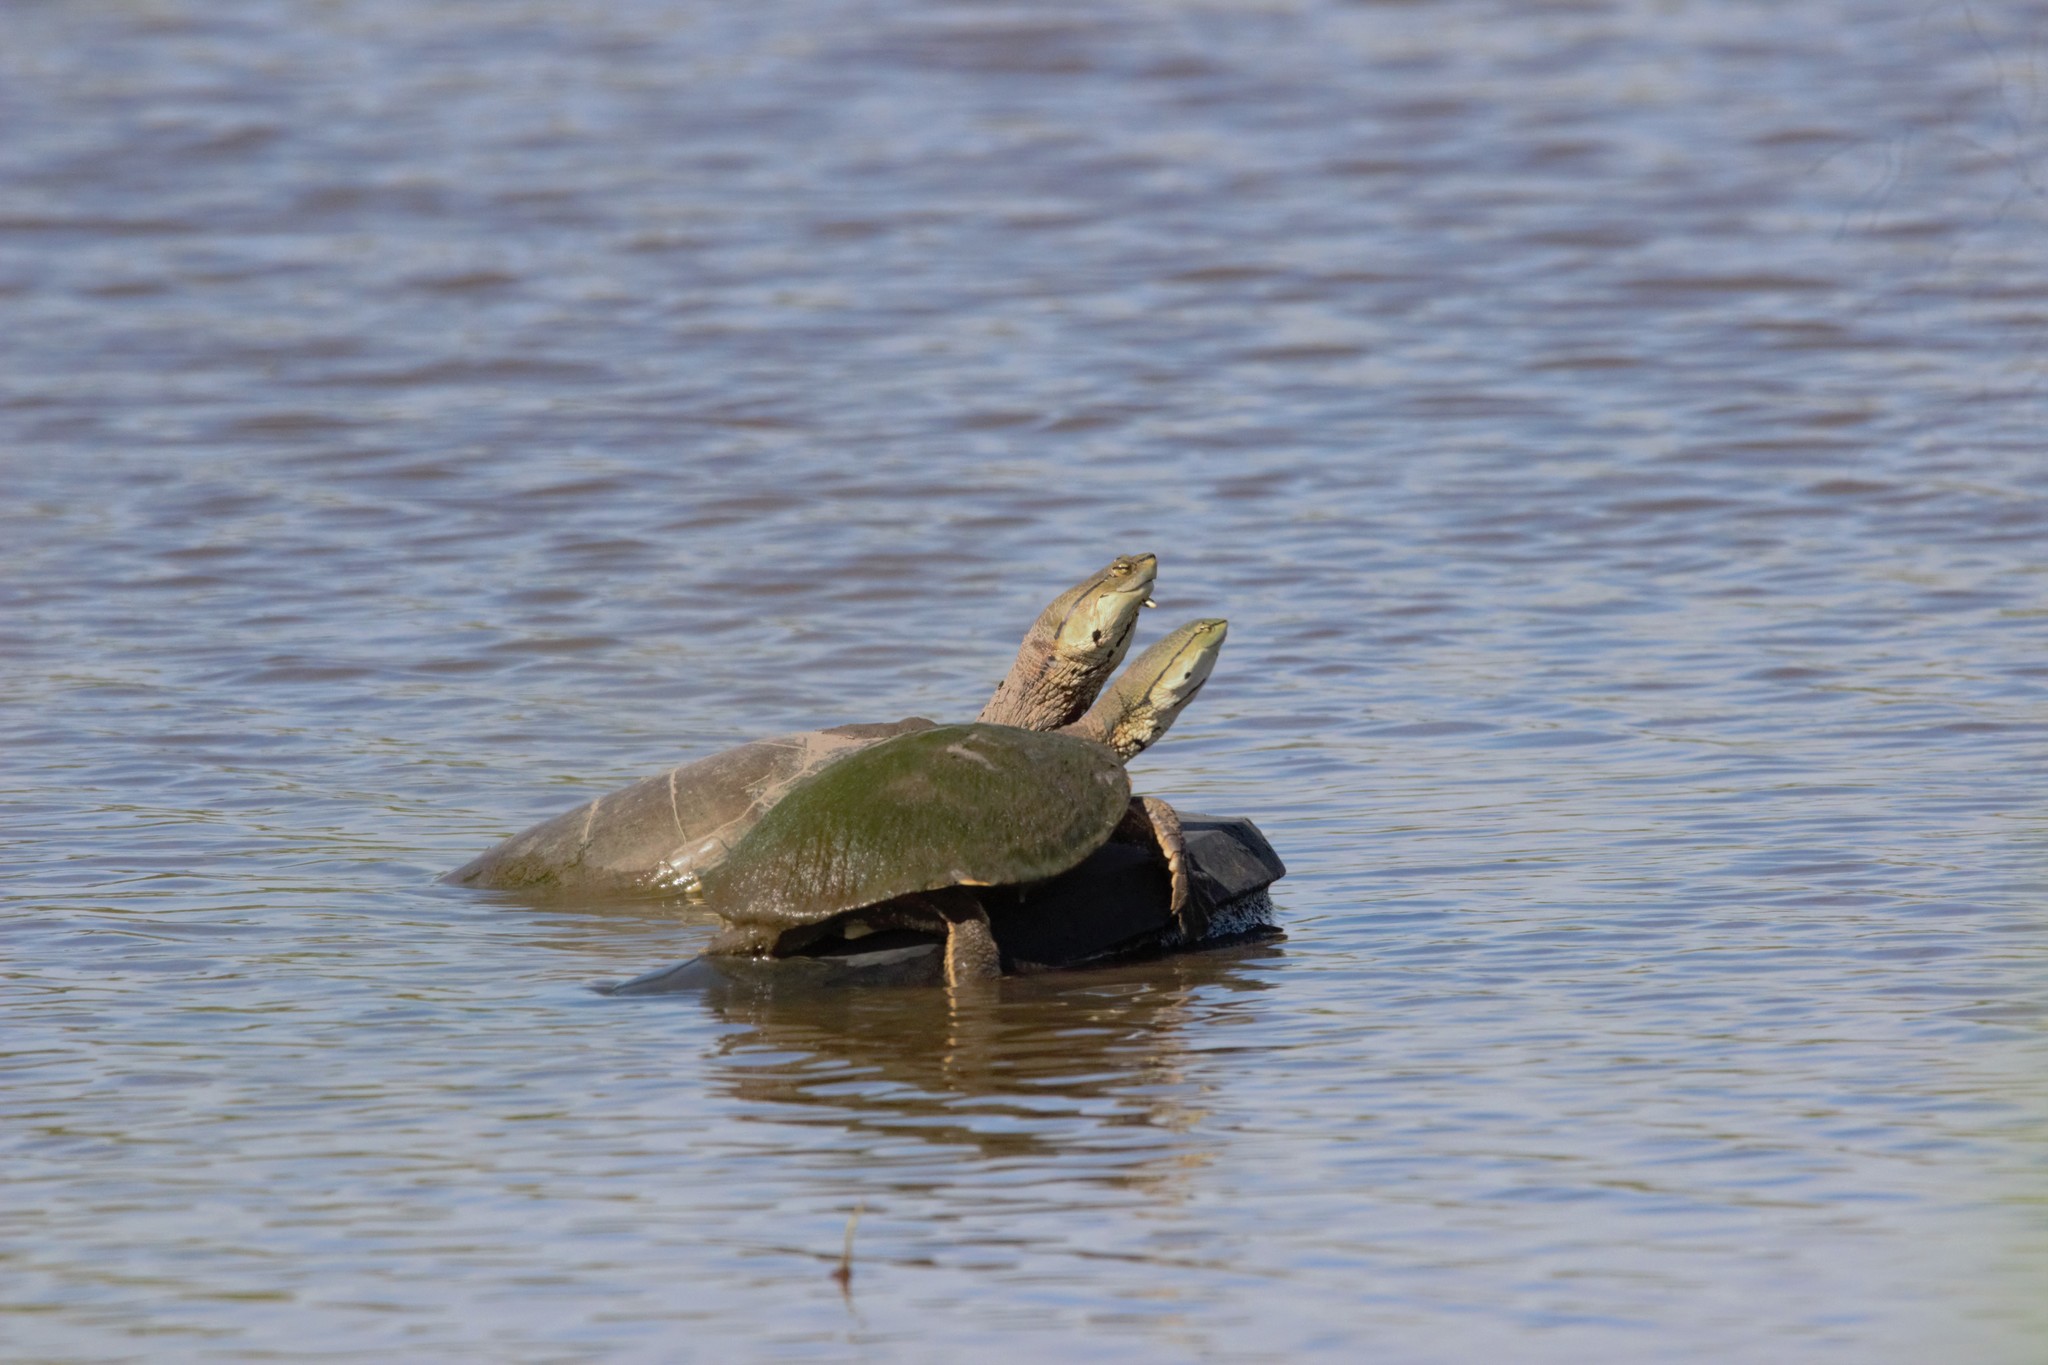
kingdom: Animalia
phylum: Chordata
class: Testudines
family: Chelidae
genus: Phrynops
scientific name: Phrynops hilarii
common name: Side-necked turtle of saint hillaire
